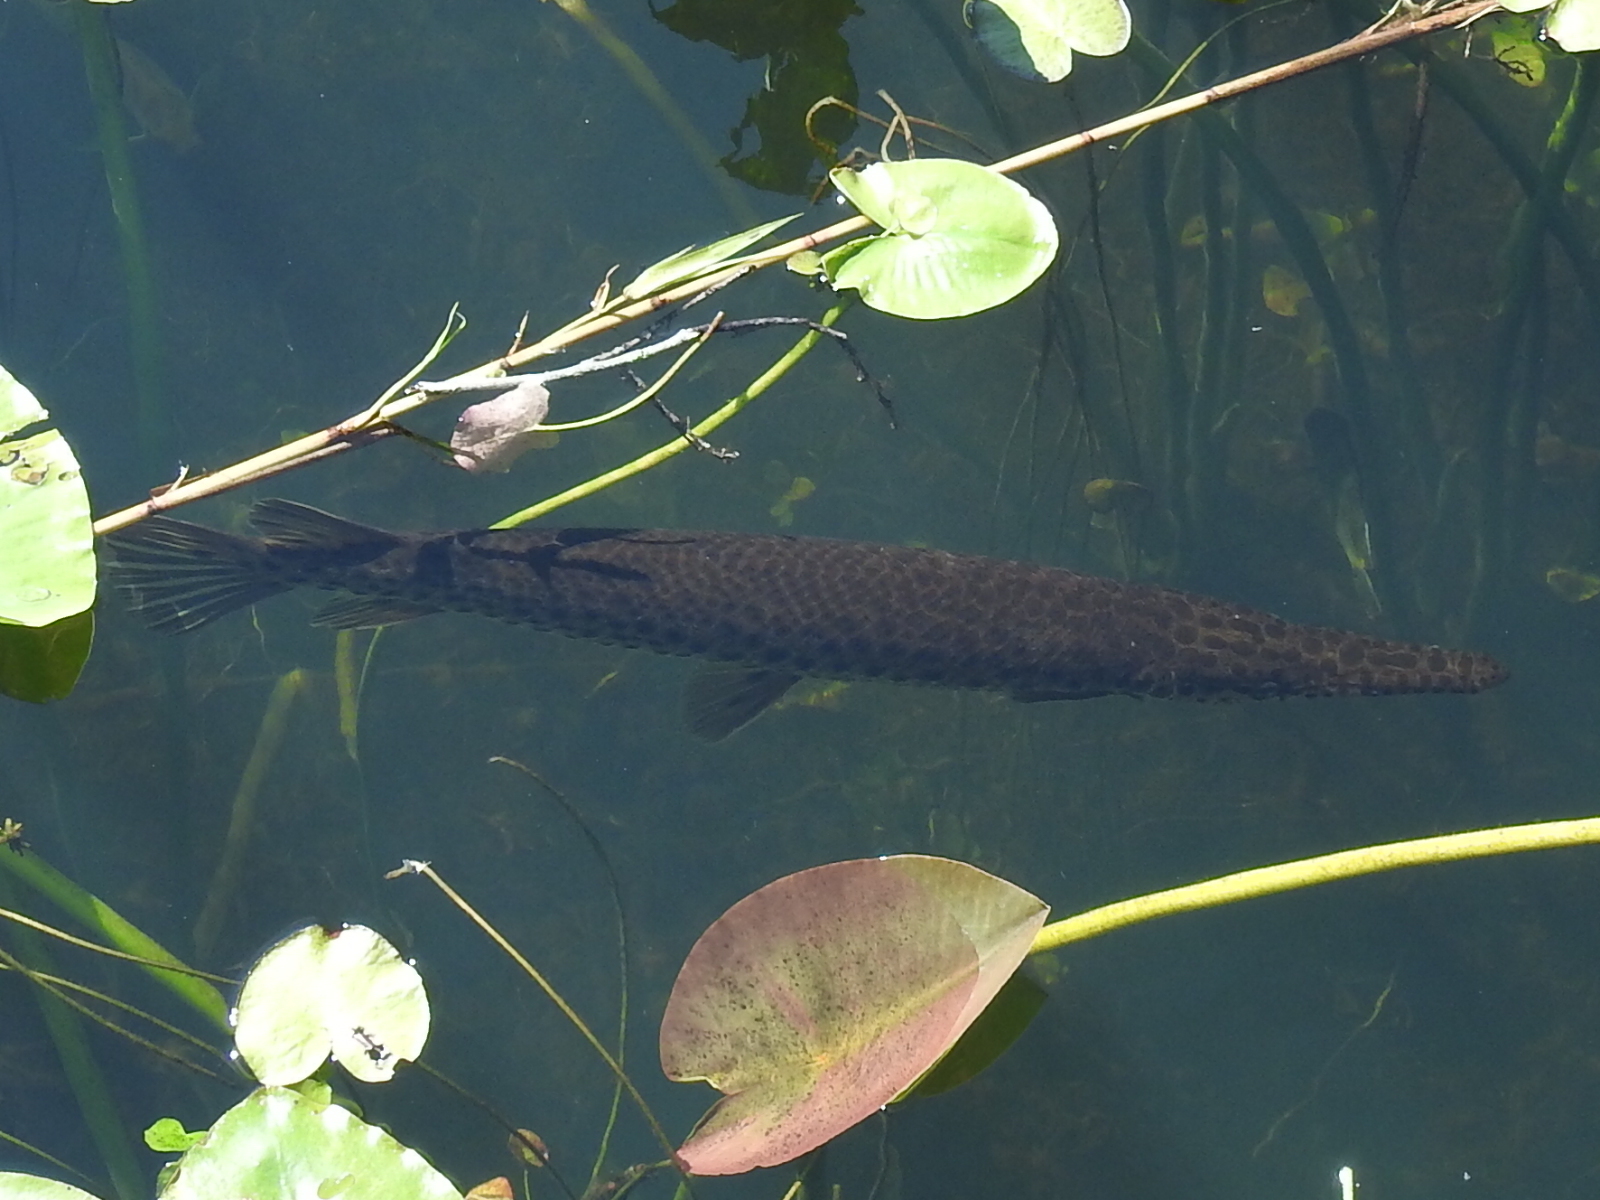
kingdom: Animalia
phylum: Chordata
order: Lepisosteiformes
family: Lepisosteidae
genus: Lepisosteus
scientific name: Lepisosteus platyrhincus
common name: Florida gar
